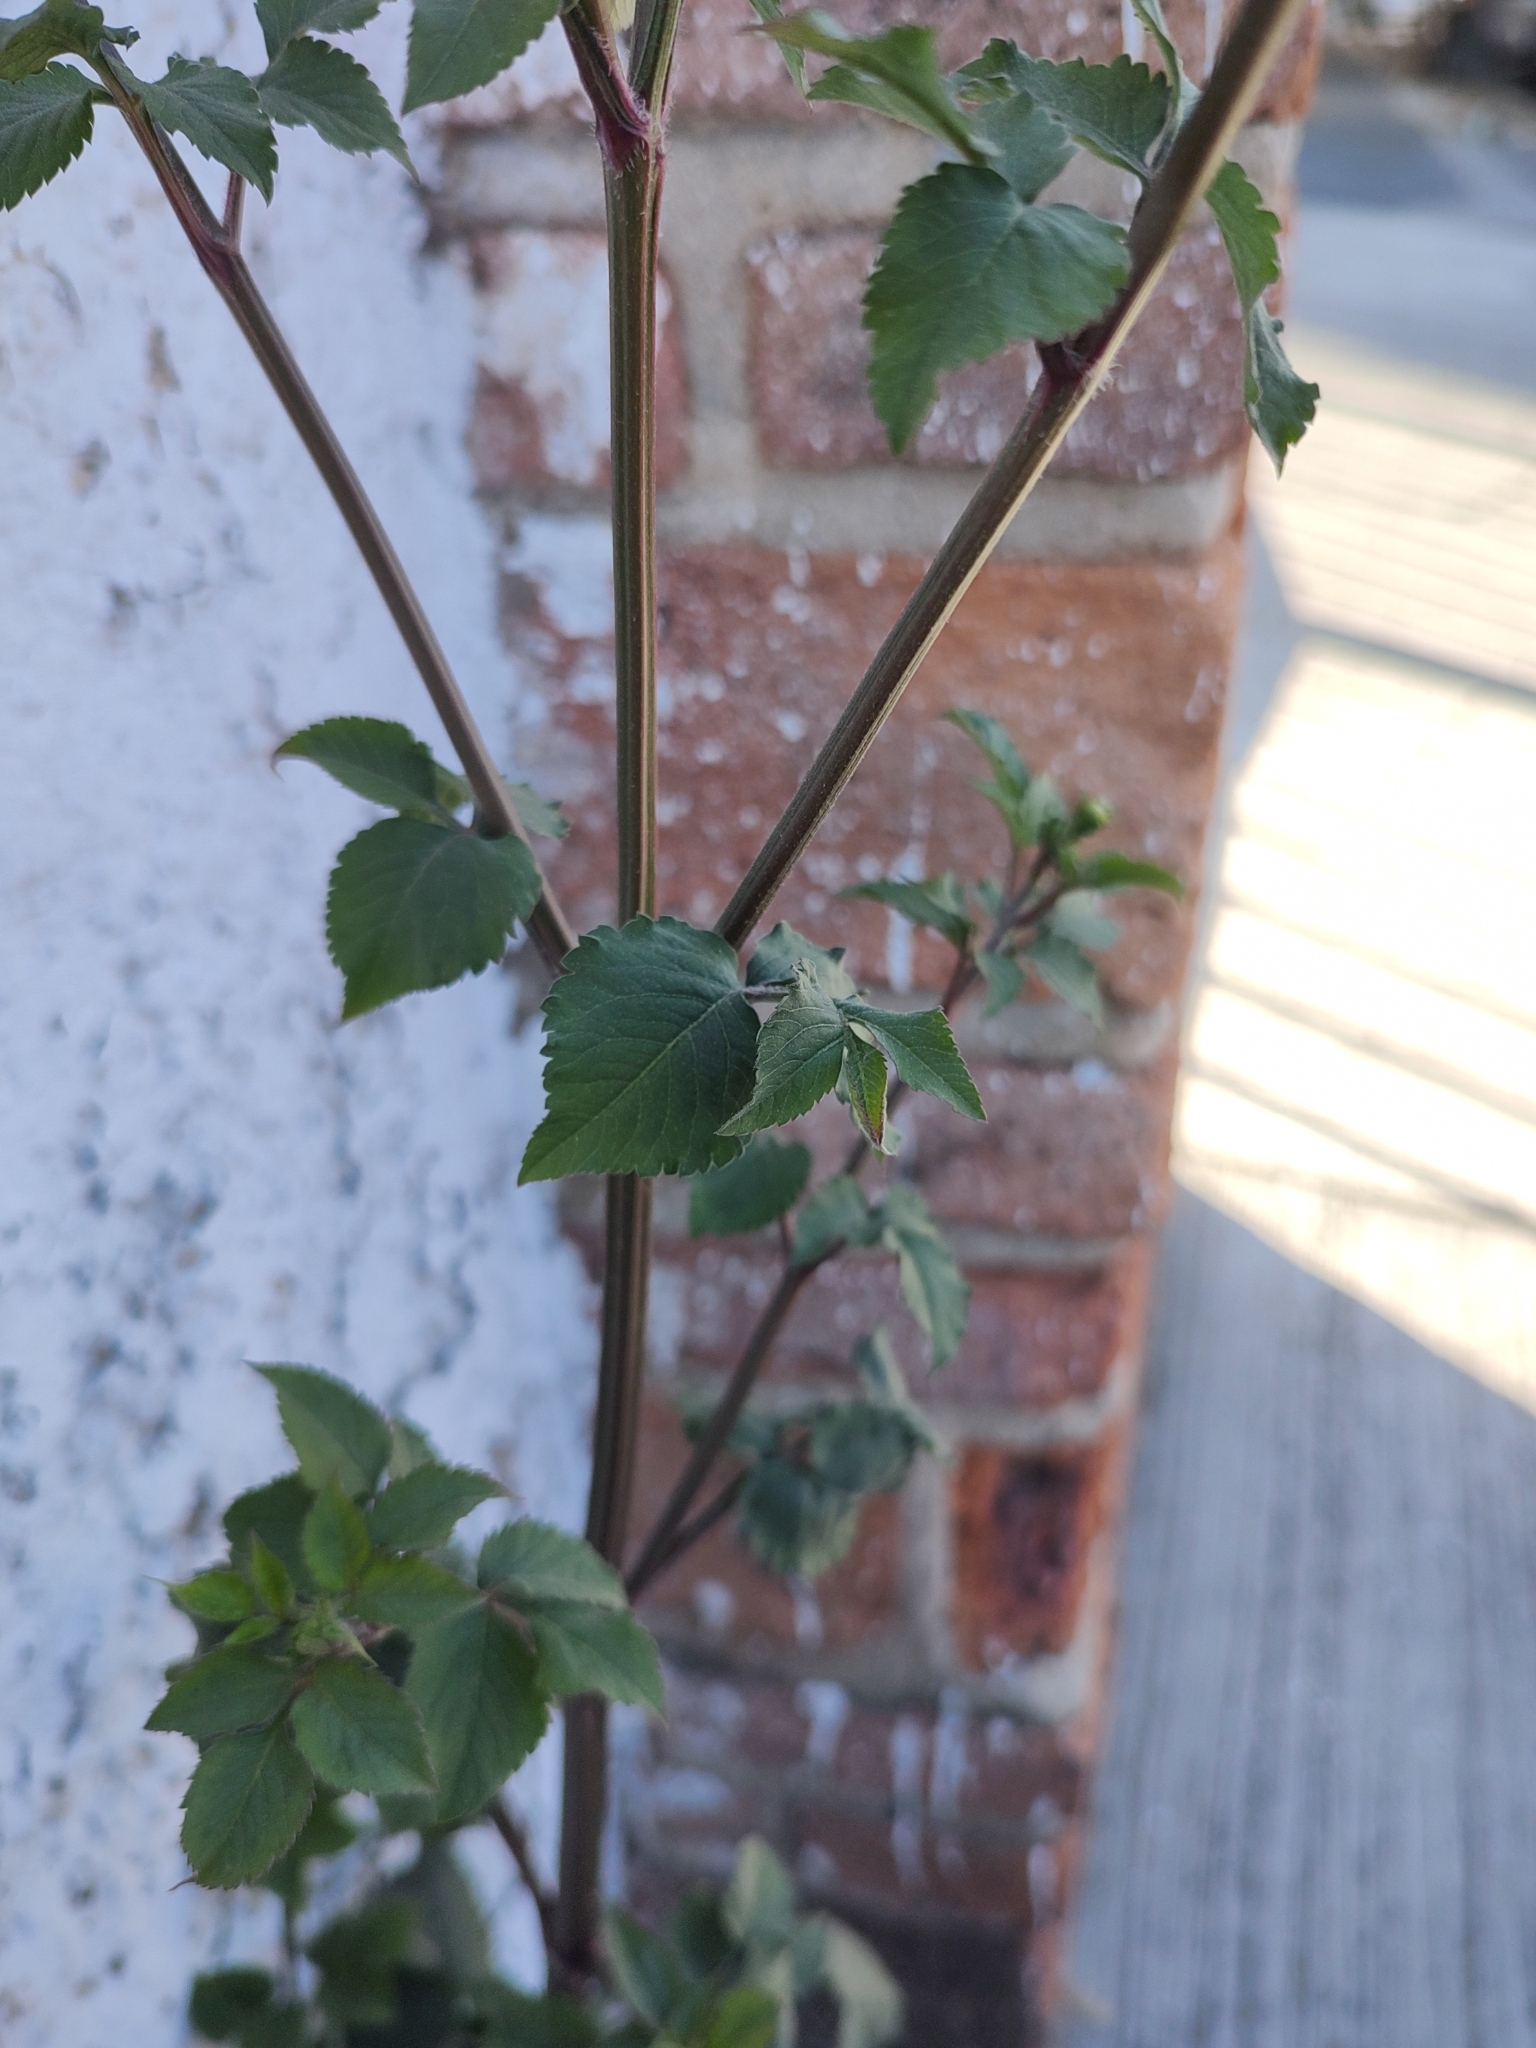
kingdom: Plantae
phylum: Tracheophyta
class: Magnoliopsida
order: Asterales
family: Asteraceae
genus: Bidens
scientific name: Bidens pilosa
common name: Black-jack
